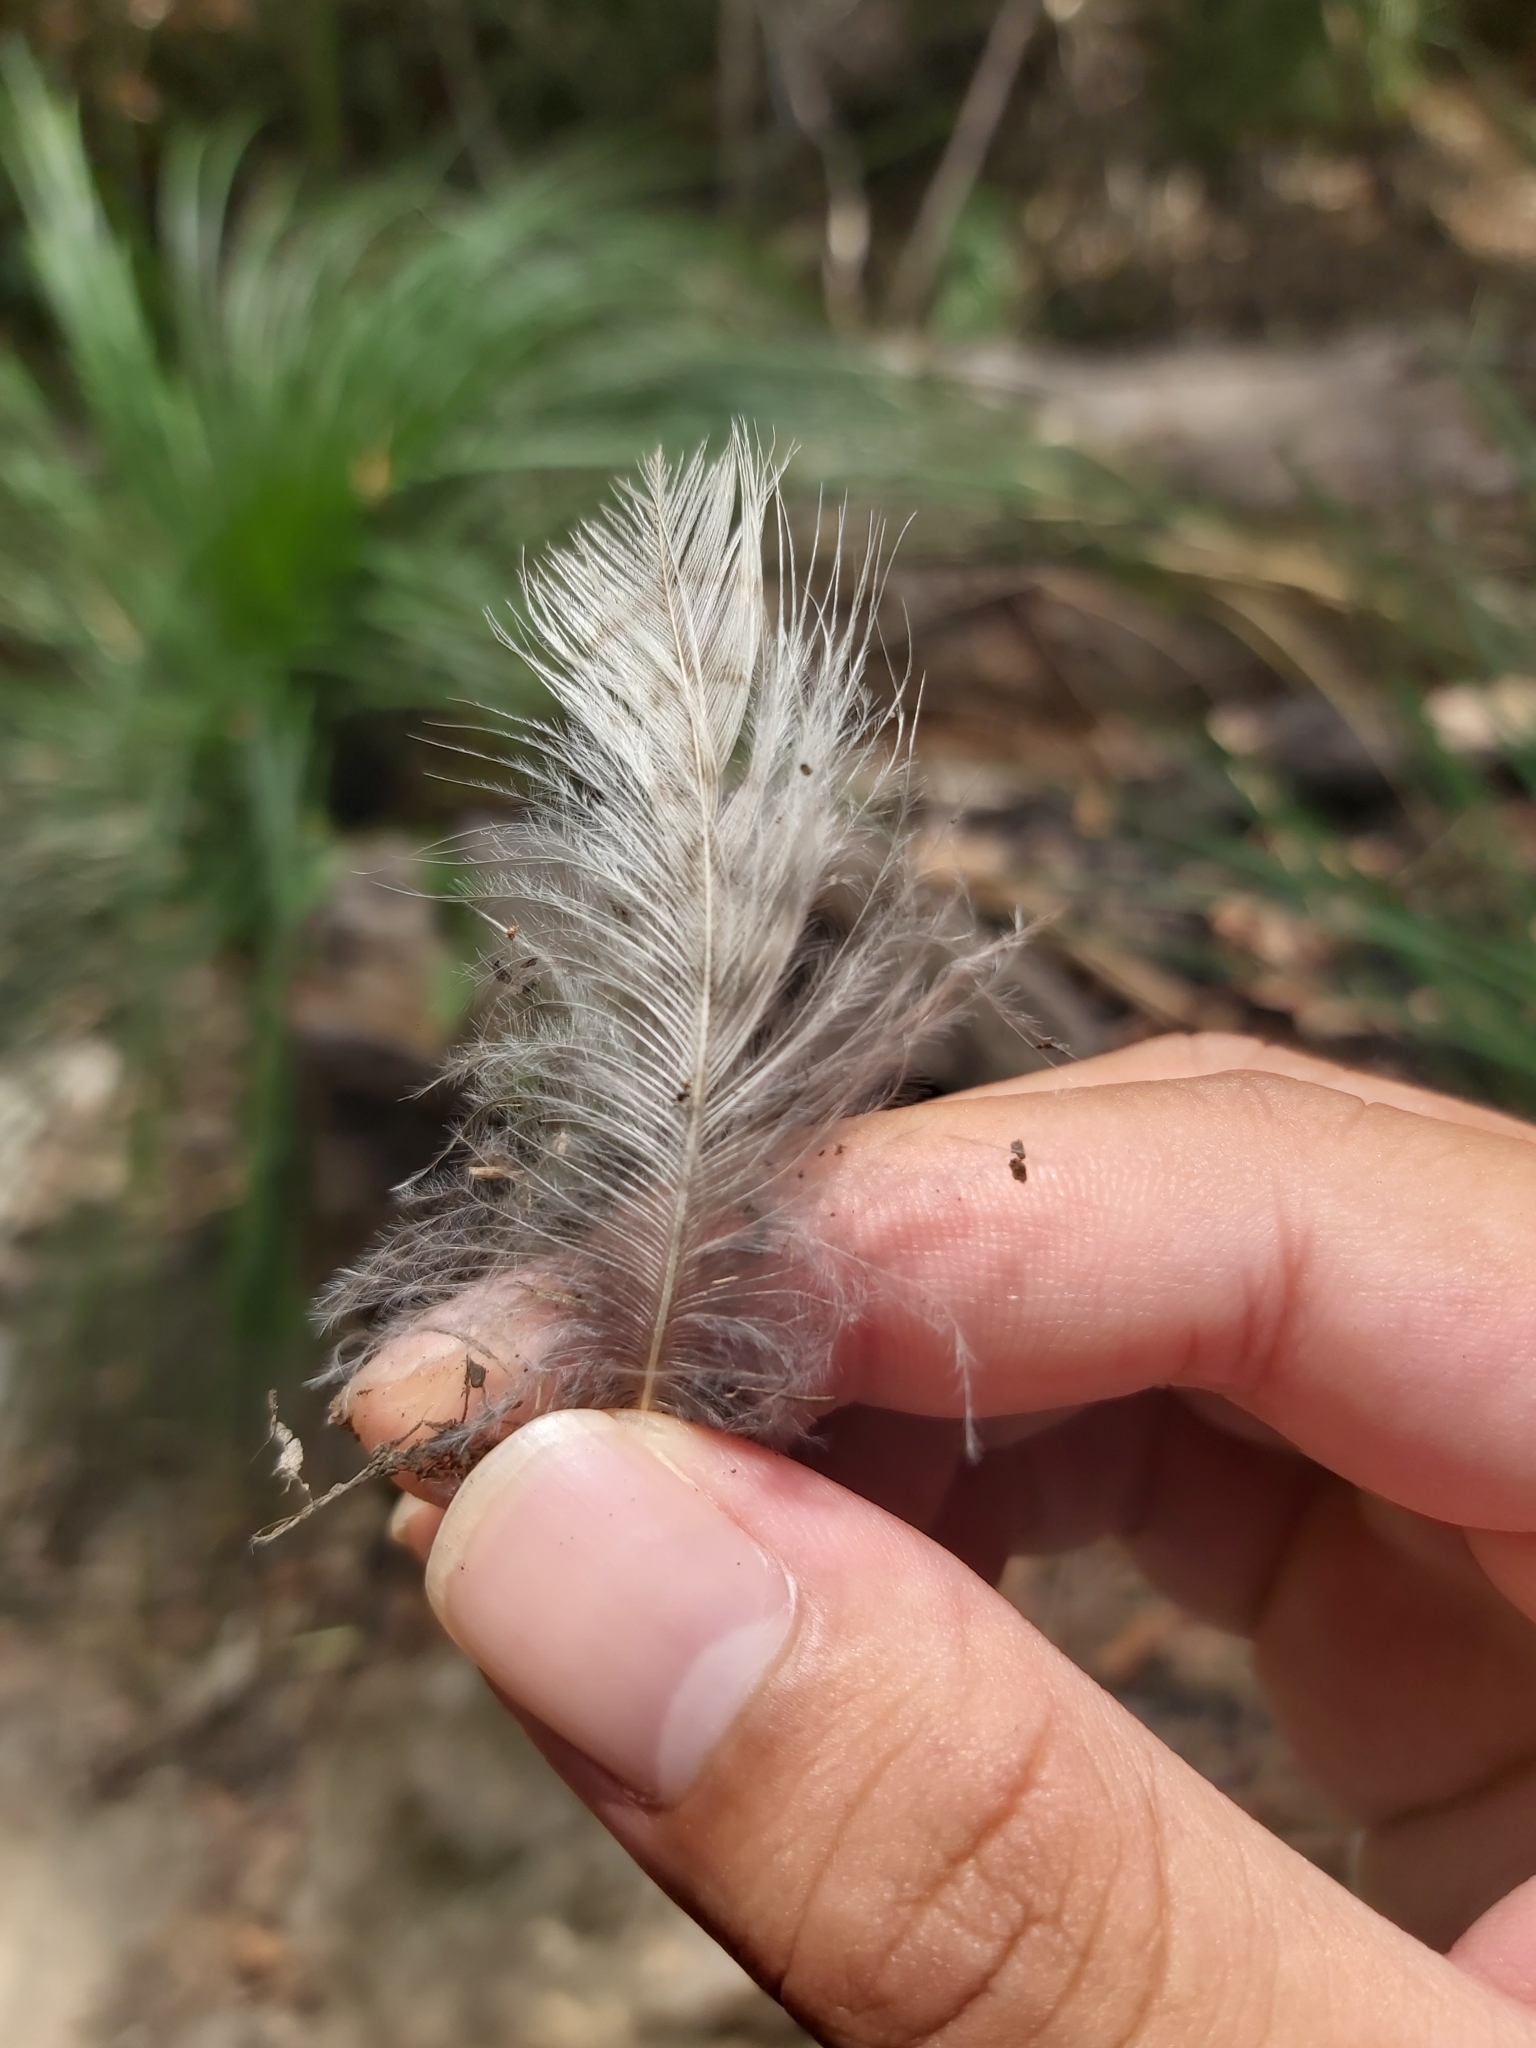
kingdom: Animalia
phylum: Chordata
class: Aves
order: Coraciiformes
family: Alcedinidae
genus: Dacelo
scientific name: Dacelo novaeguineae
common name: Laughing kookaburra
